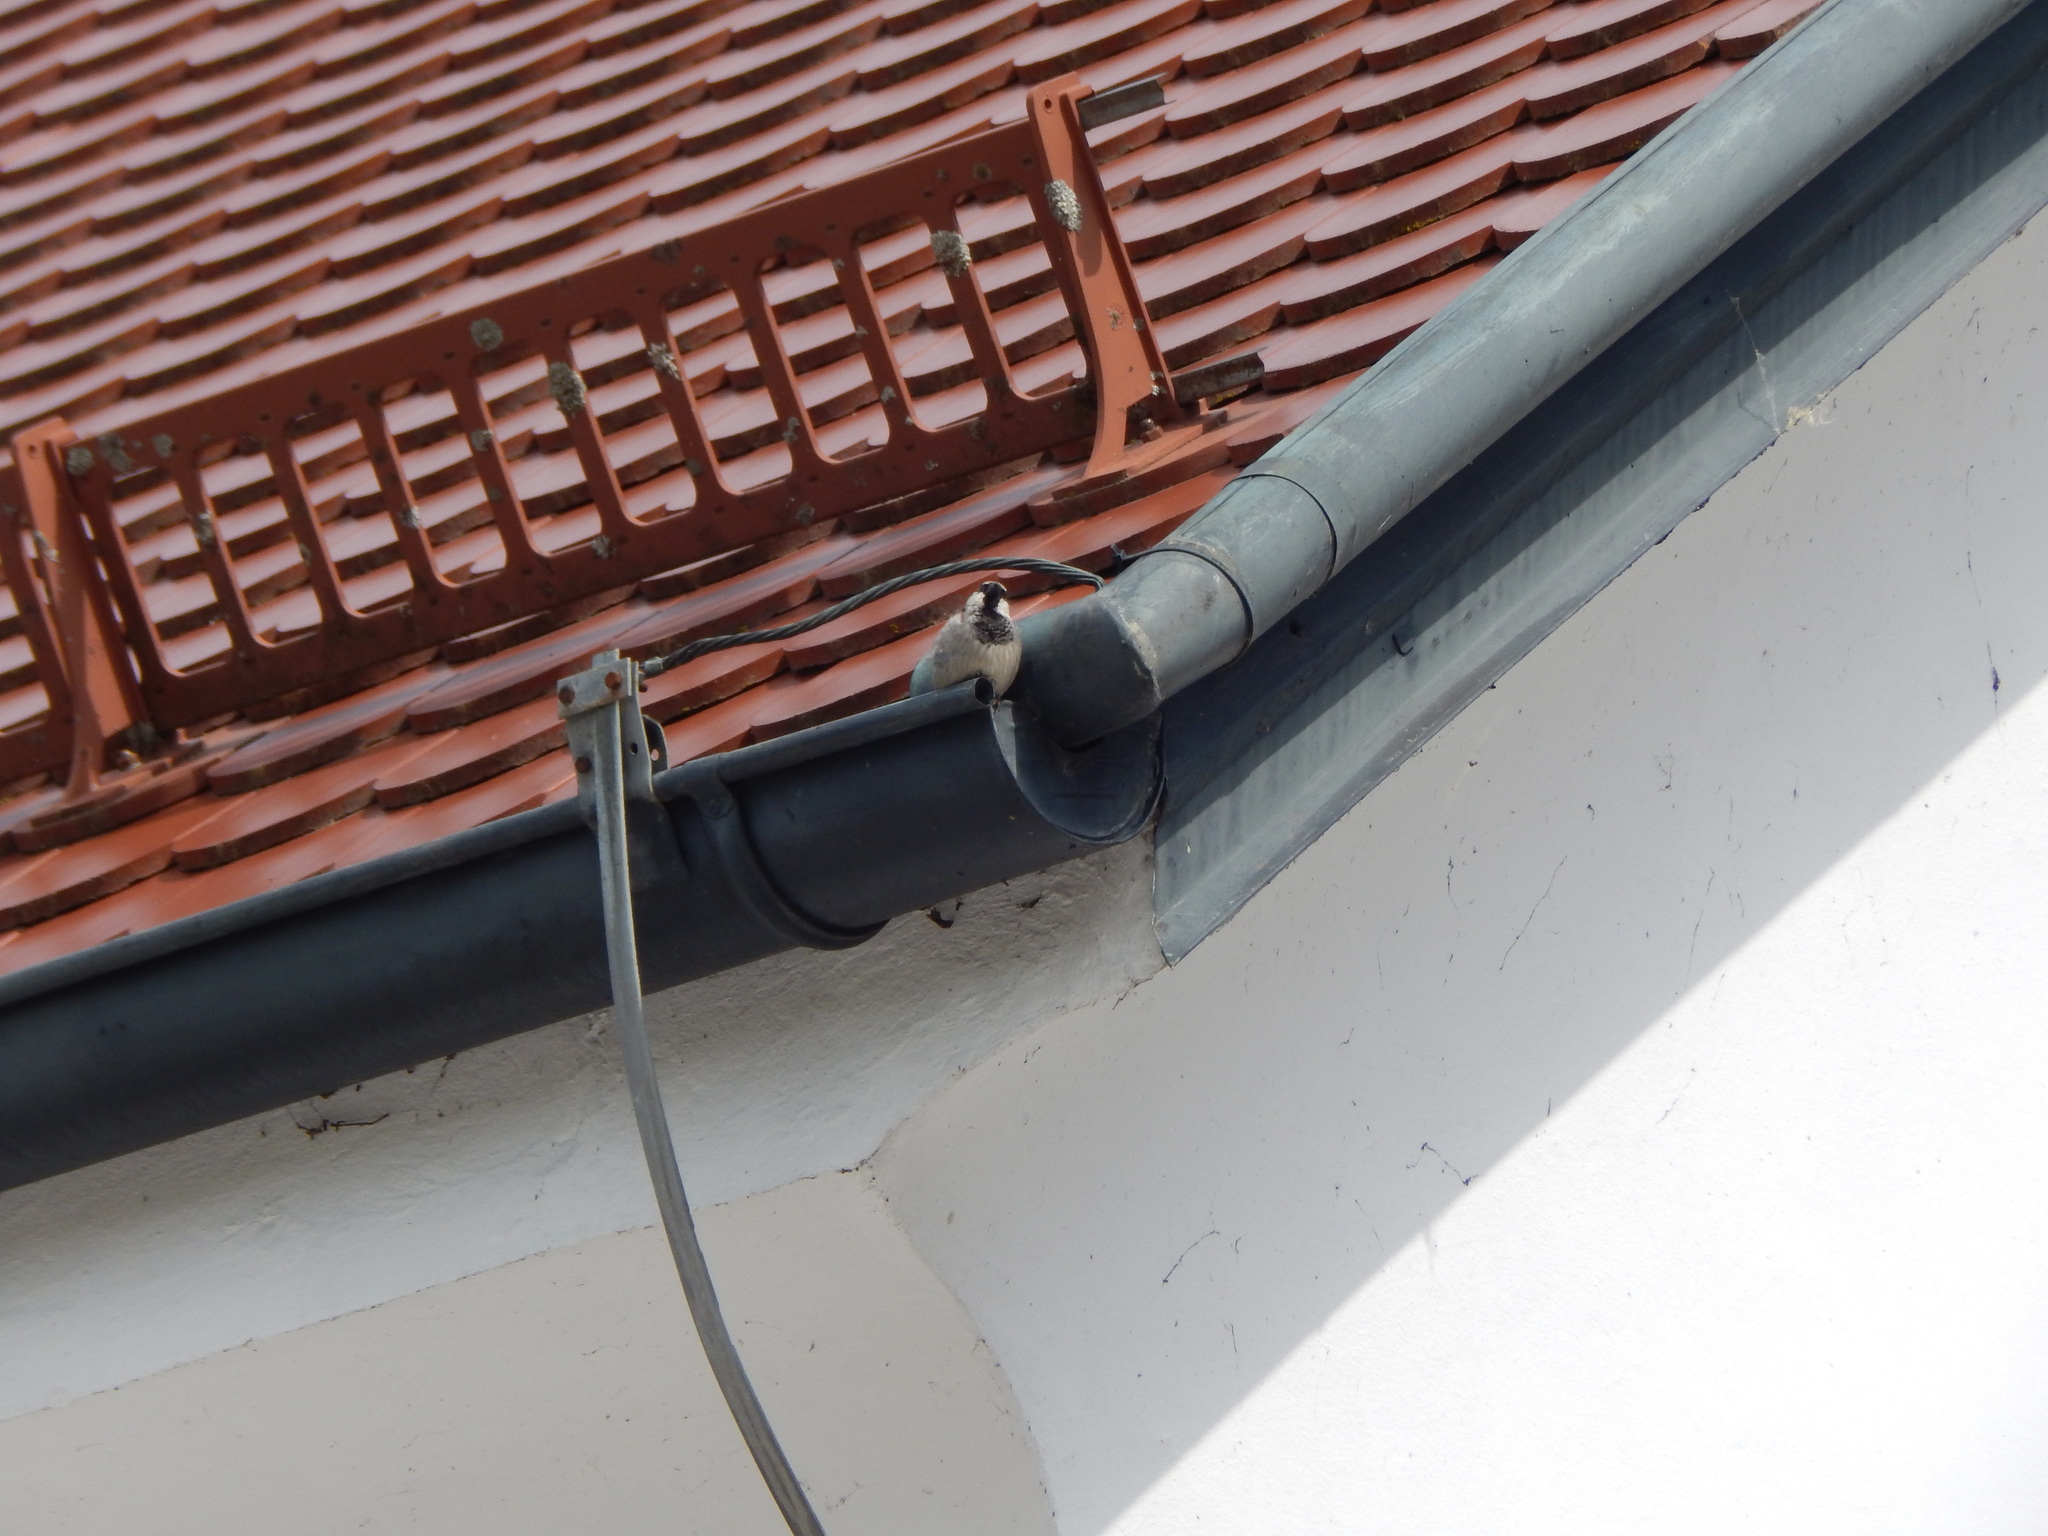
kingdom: Animalia
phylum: Chordata
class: Aves
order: Passeriformes
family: Passeridae
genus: Passer
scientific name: Passer domesticus
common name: House sparrow
